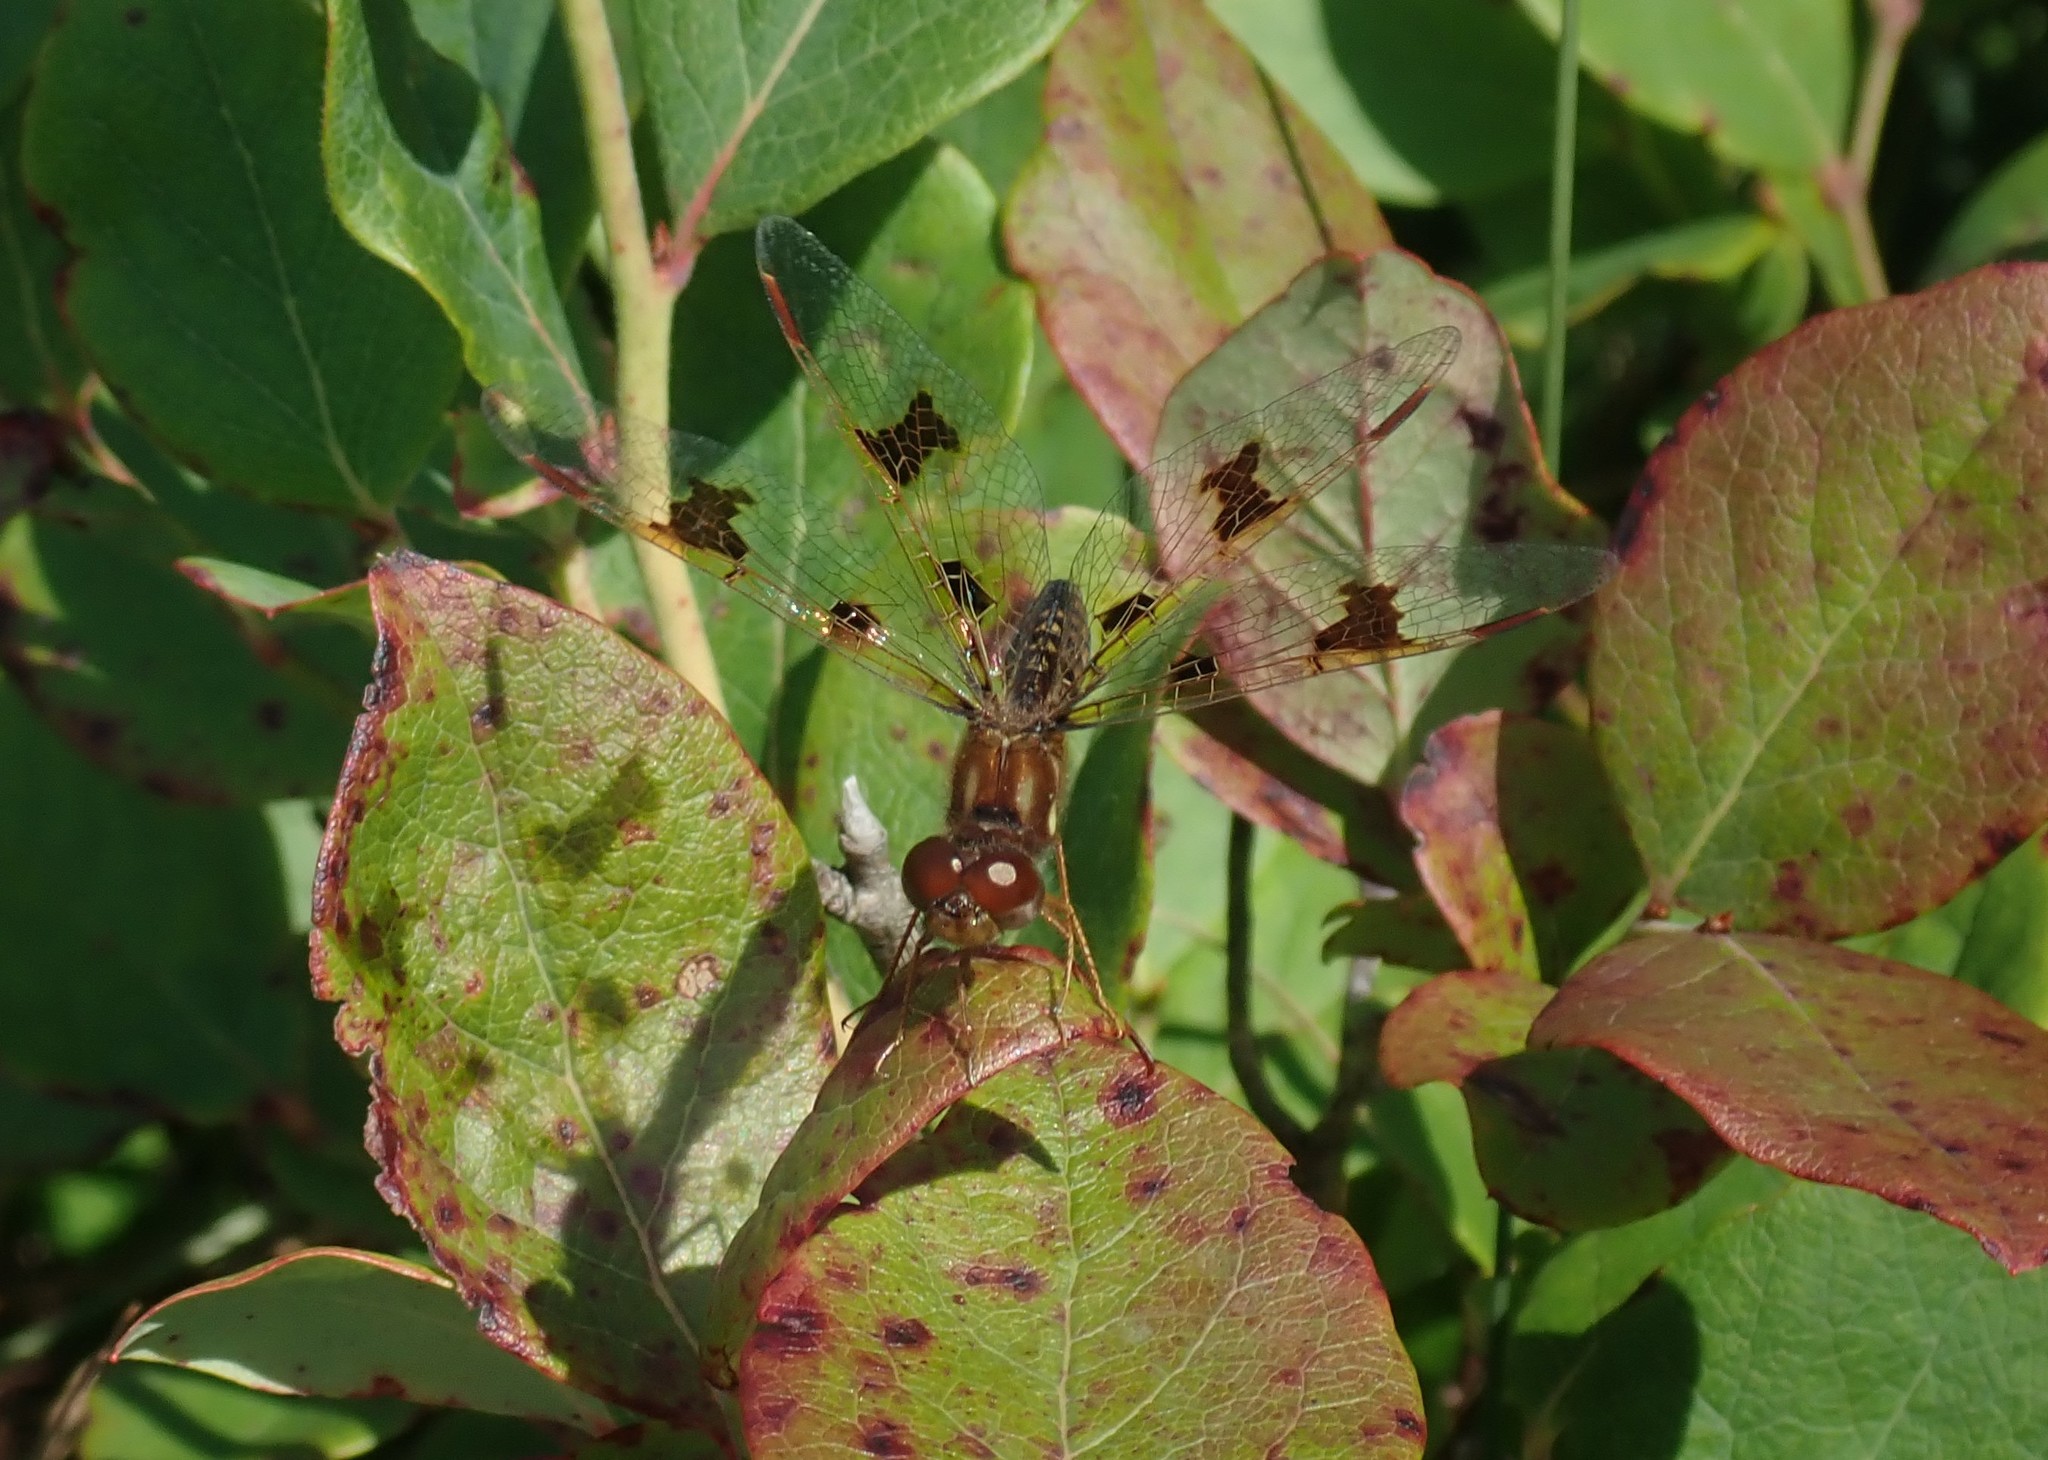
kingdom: Animalia
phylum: Arthropoda
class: Insecta
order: Odonata
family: Libellulidae
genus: Perithemis
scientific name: Perithemis tenera
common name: Eastern amberwing
